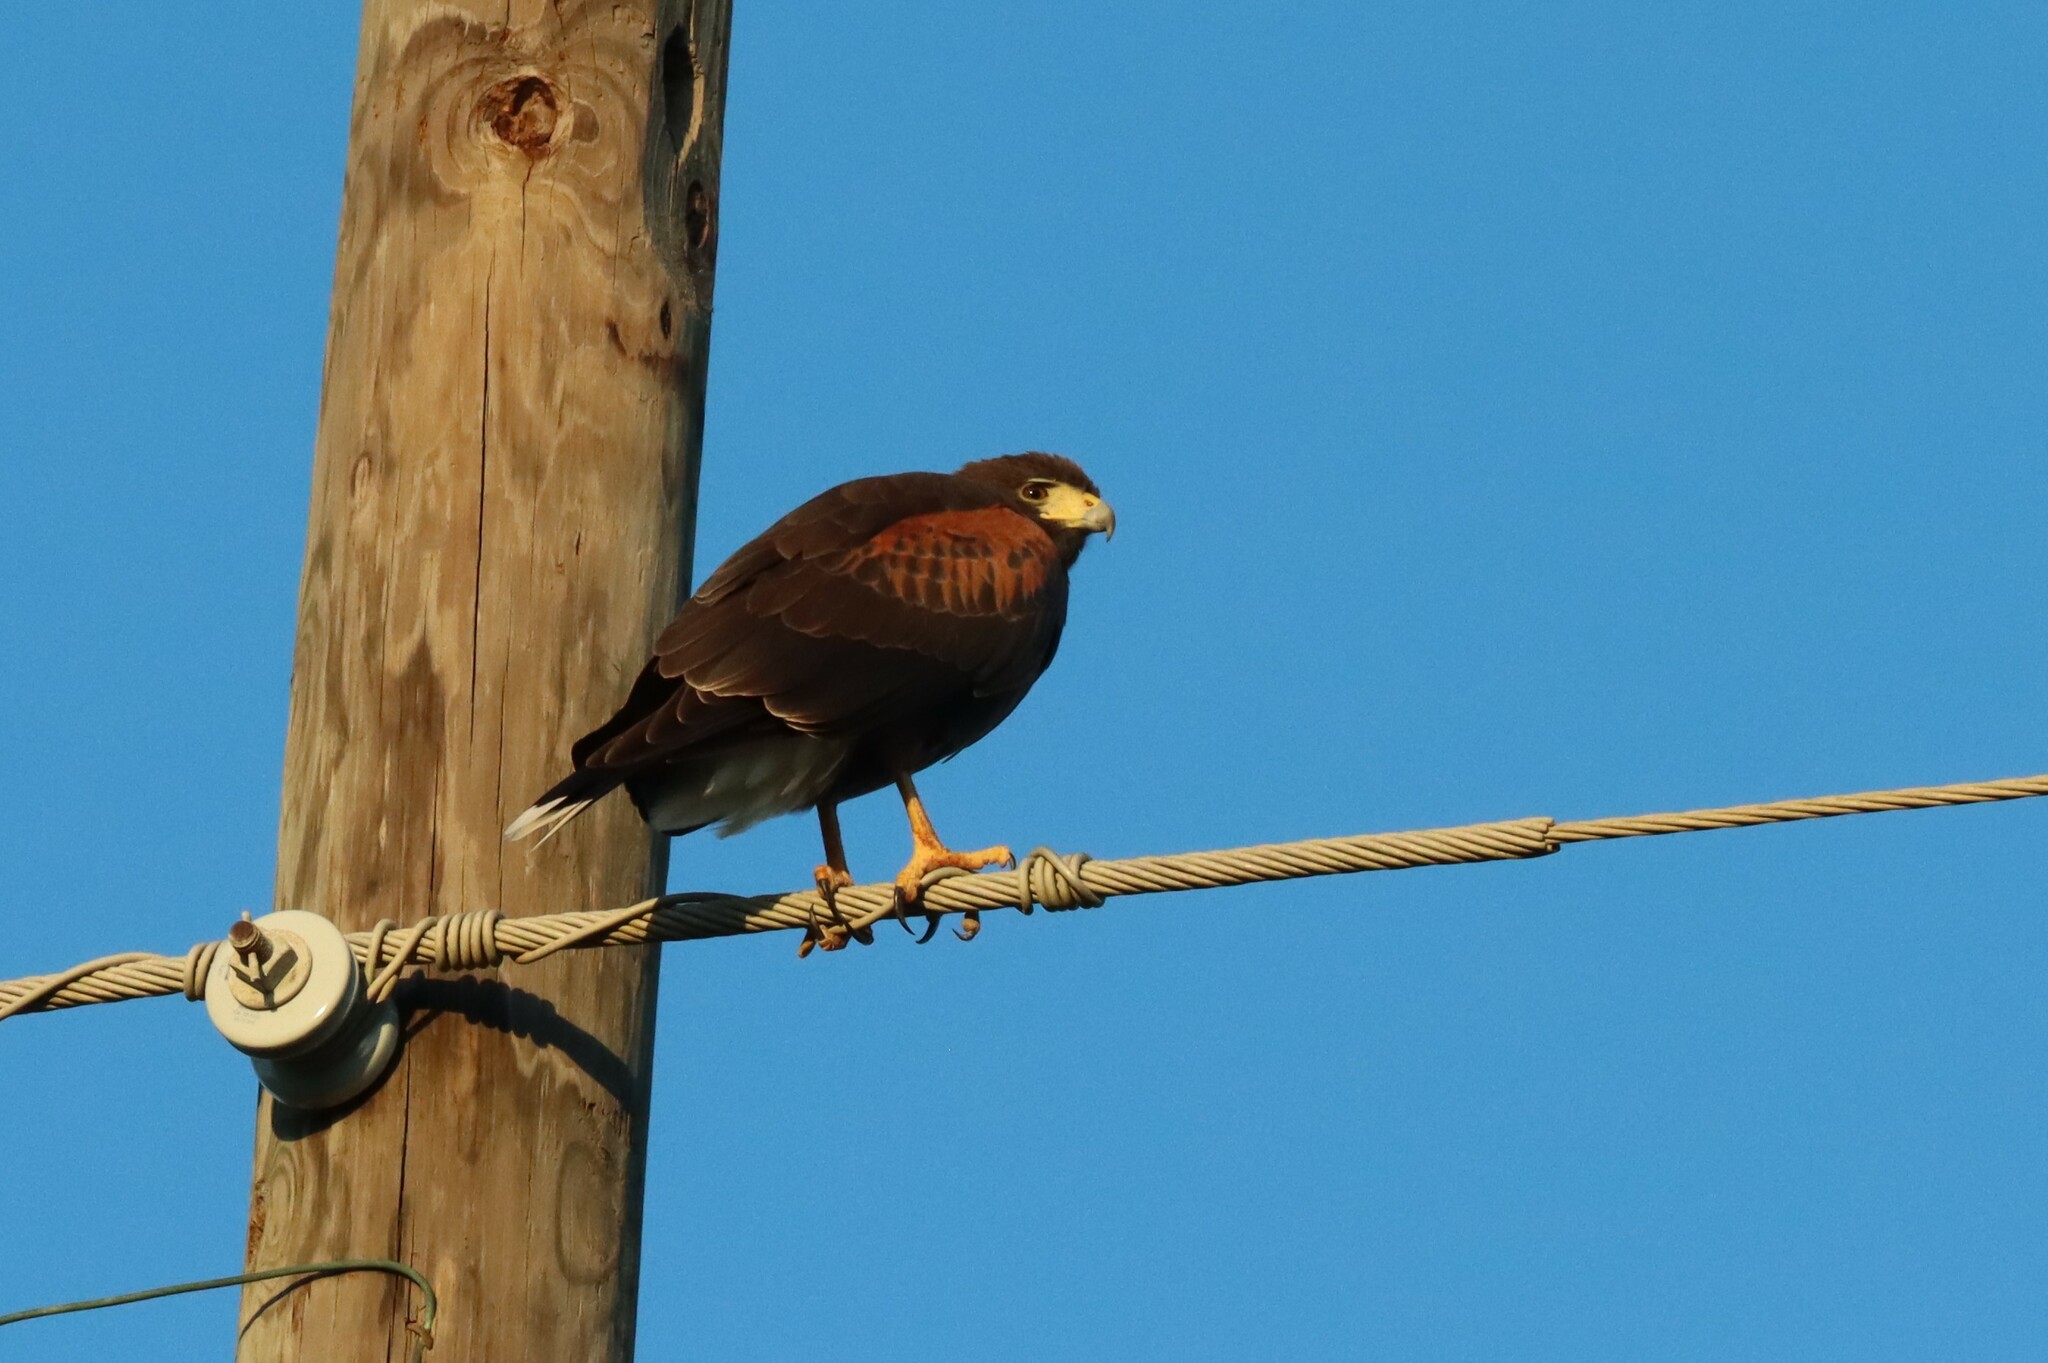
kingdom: Animalia
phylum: Chordata
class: Aves
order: Accipitriformes
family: Accipitridae
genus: Parabuteo
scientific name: Parabuteo unicinctus
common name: Harris's hawk
